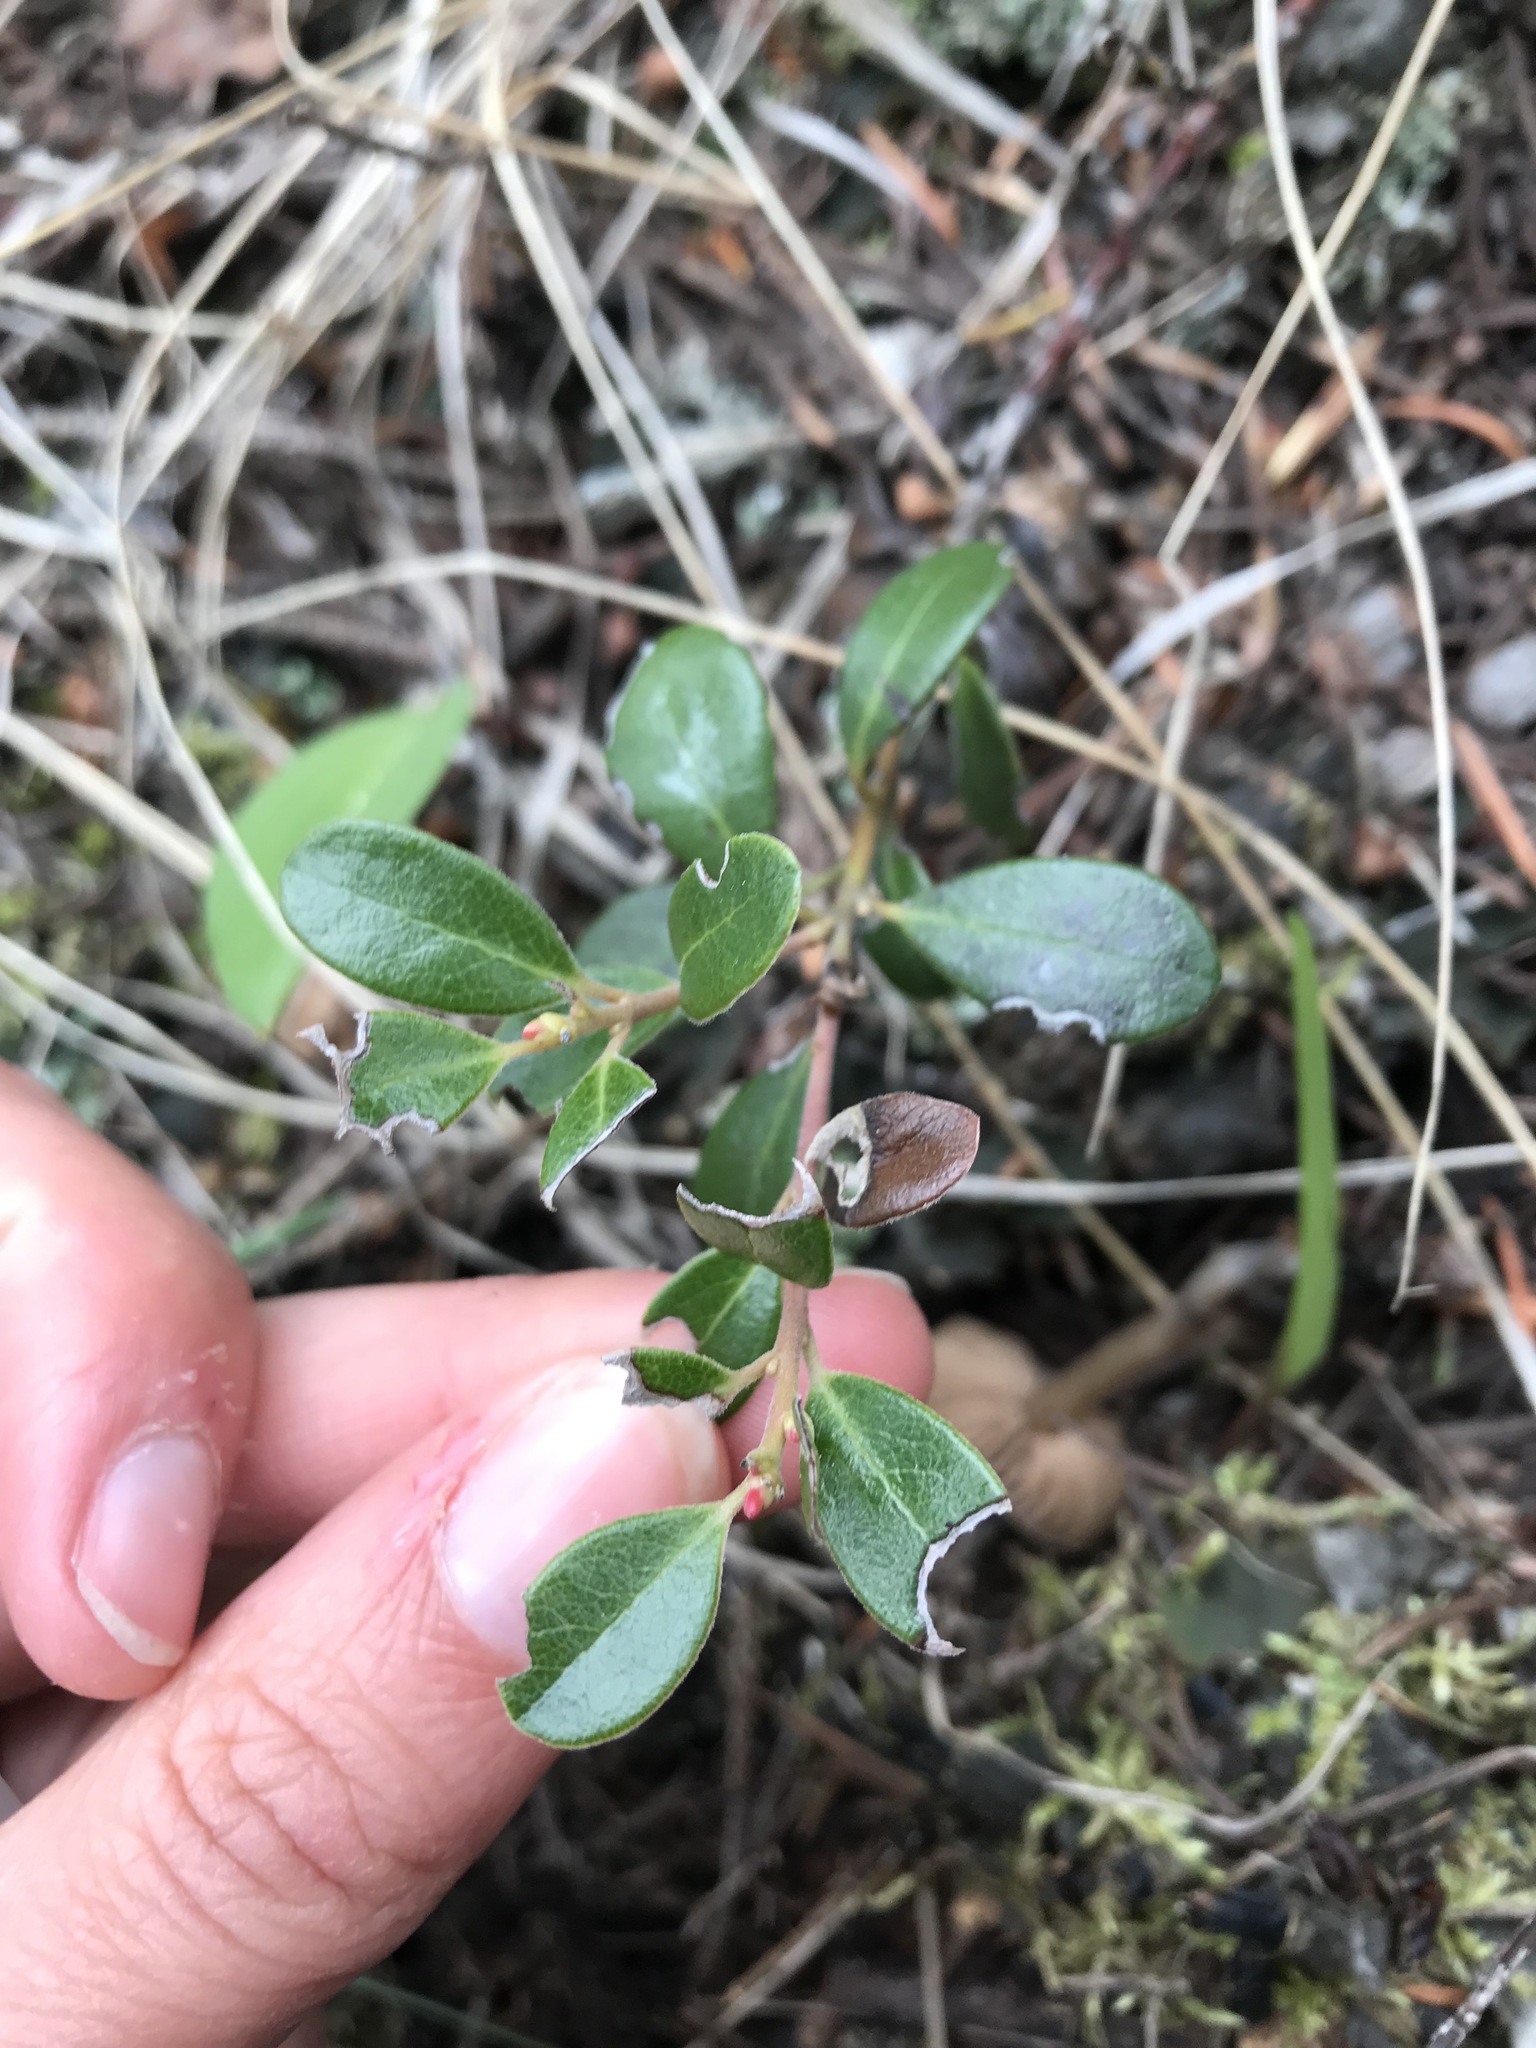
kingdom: Plantae
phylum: Tracheophyta
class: Magnoliopsida
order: Ericales
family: Ericaceae
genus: Arctostaphylos
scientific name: Arctostaphylos uva-ursi
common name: Bearberry
